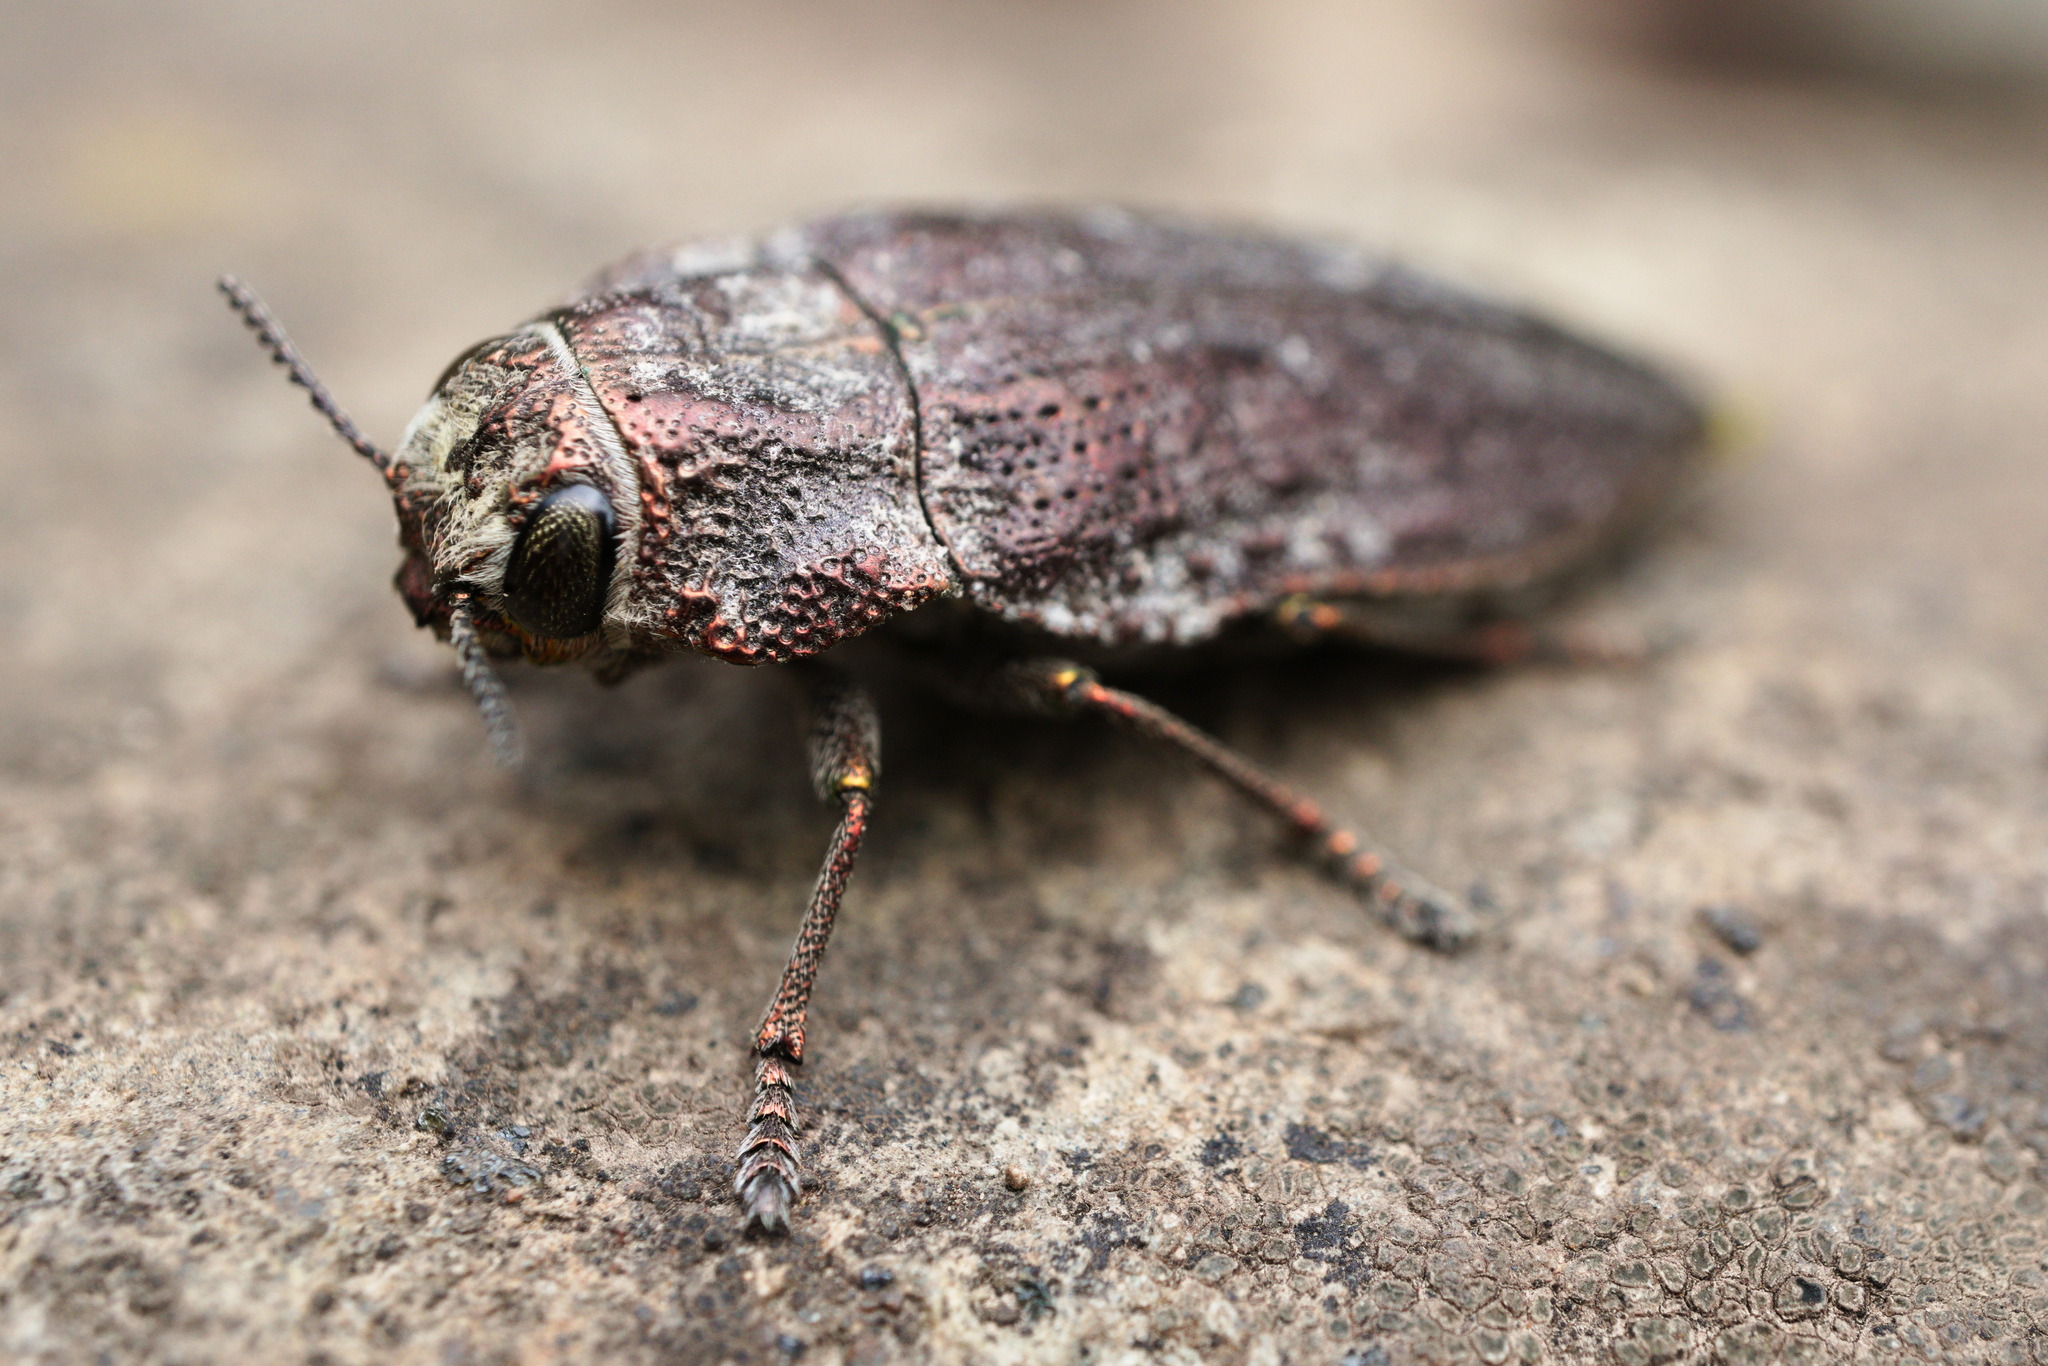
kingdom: Animalia
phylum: Arthropoda
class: Insecta
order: Coleoptera
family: Buprestidae
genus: Ectinogonia
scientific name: Ectinogonia buquetii
